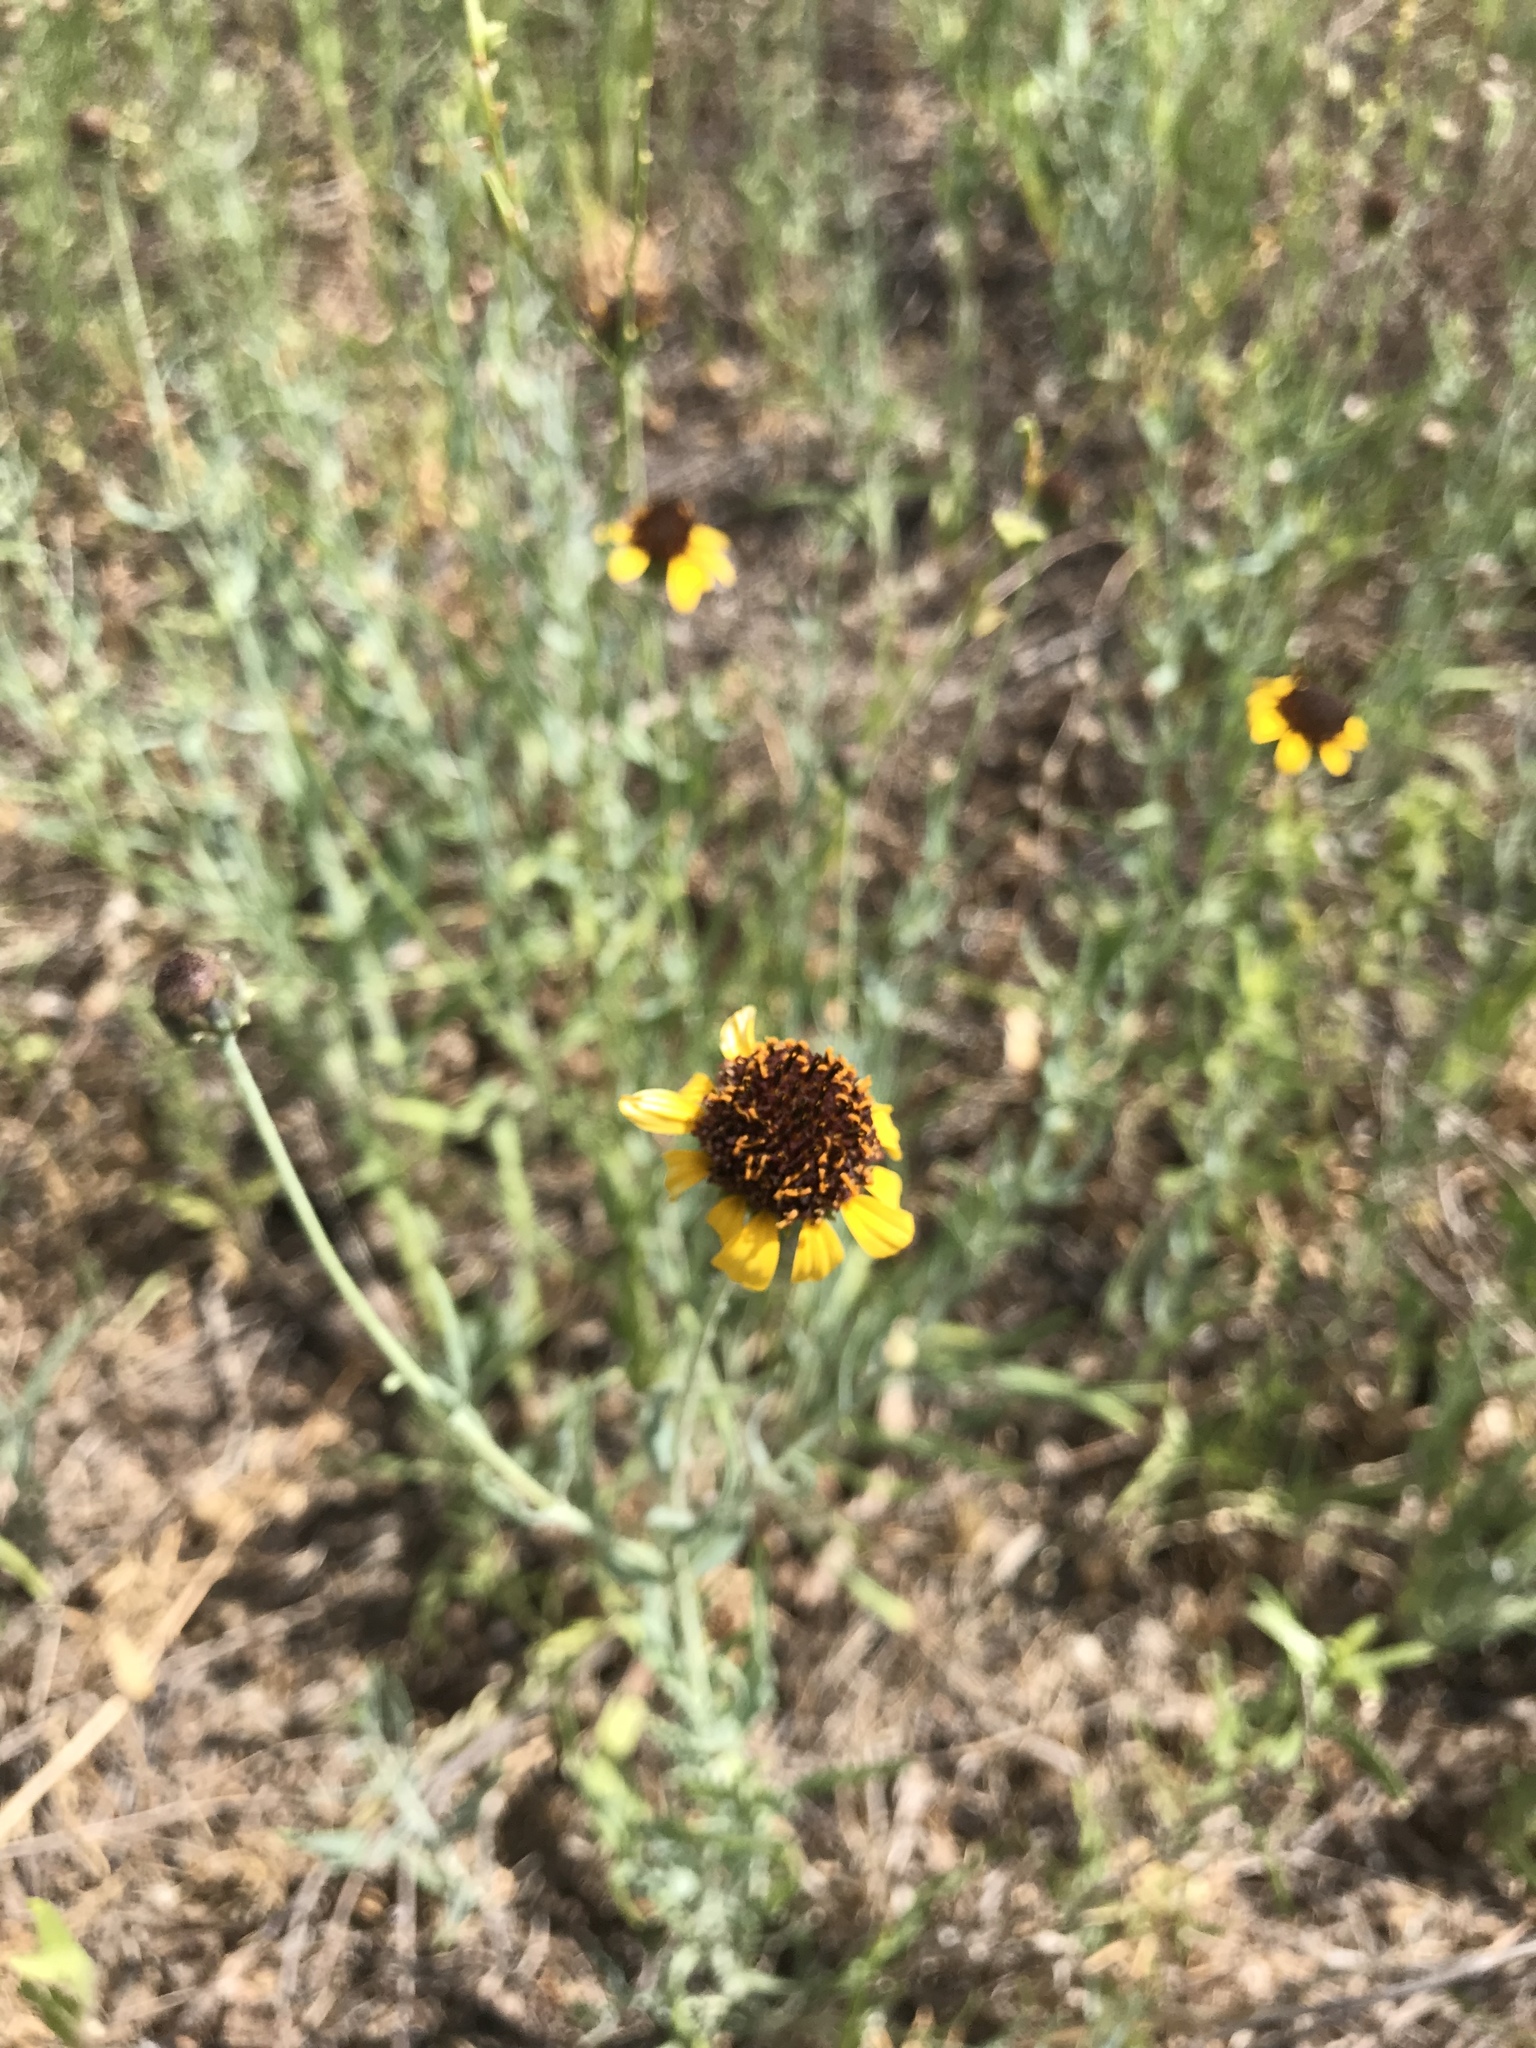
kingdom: Plantae
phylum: Tracheophyta
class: Magnoliopsida
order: Asterales
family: Asteraceae
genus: Helianthus
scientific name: Helianthus ciliaris
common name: Texas blueweed
